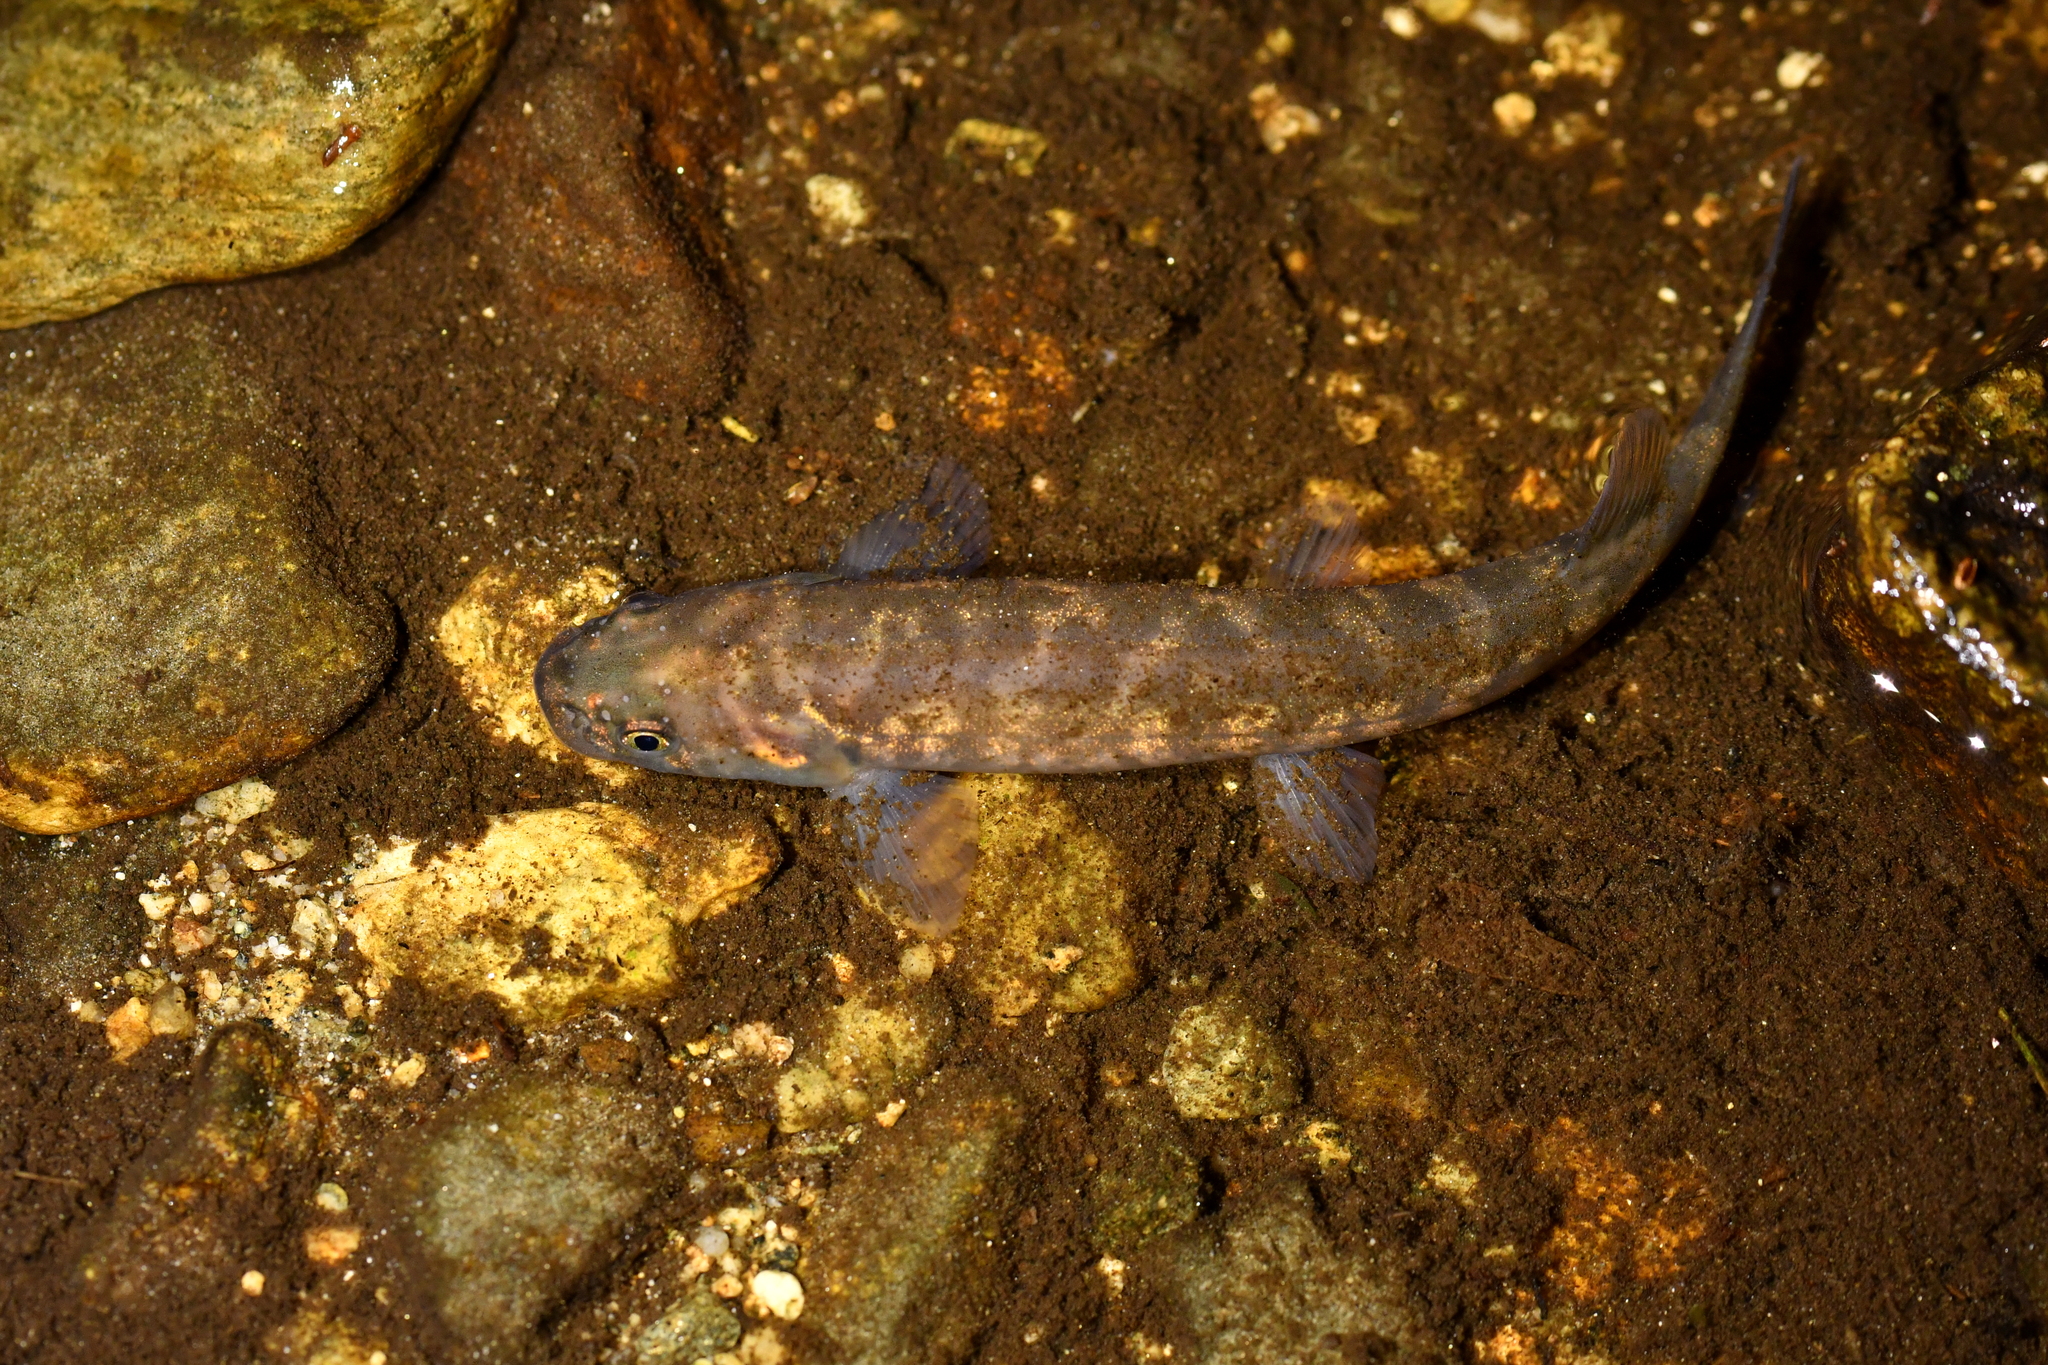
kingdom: Animalia
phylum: Chordata
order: Osmeriformes
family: Galaxiidae
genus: Galaxias
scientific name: Galaxias brevipinnis
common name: Koaro
